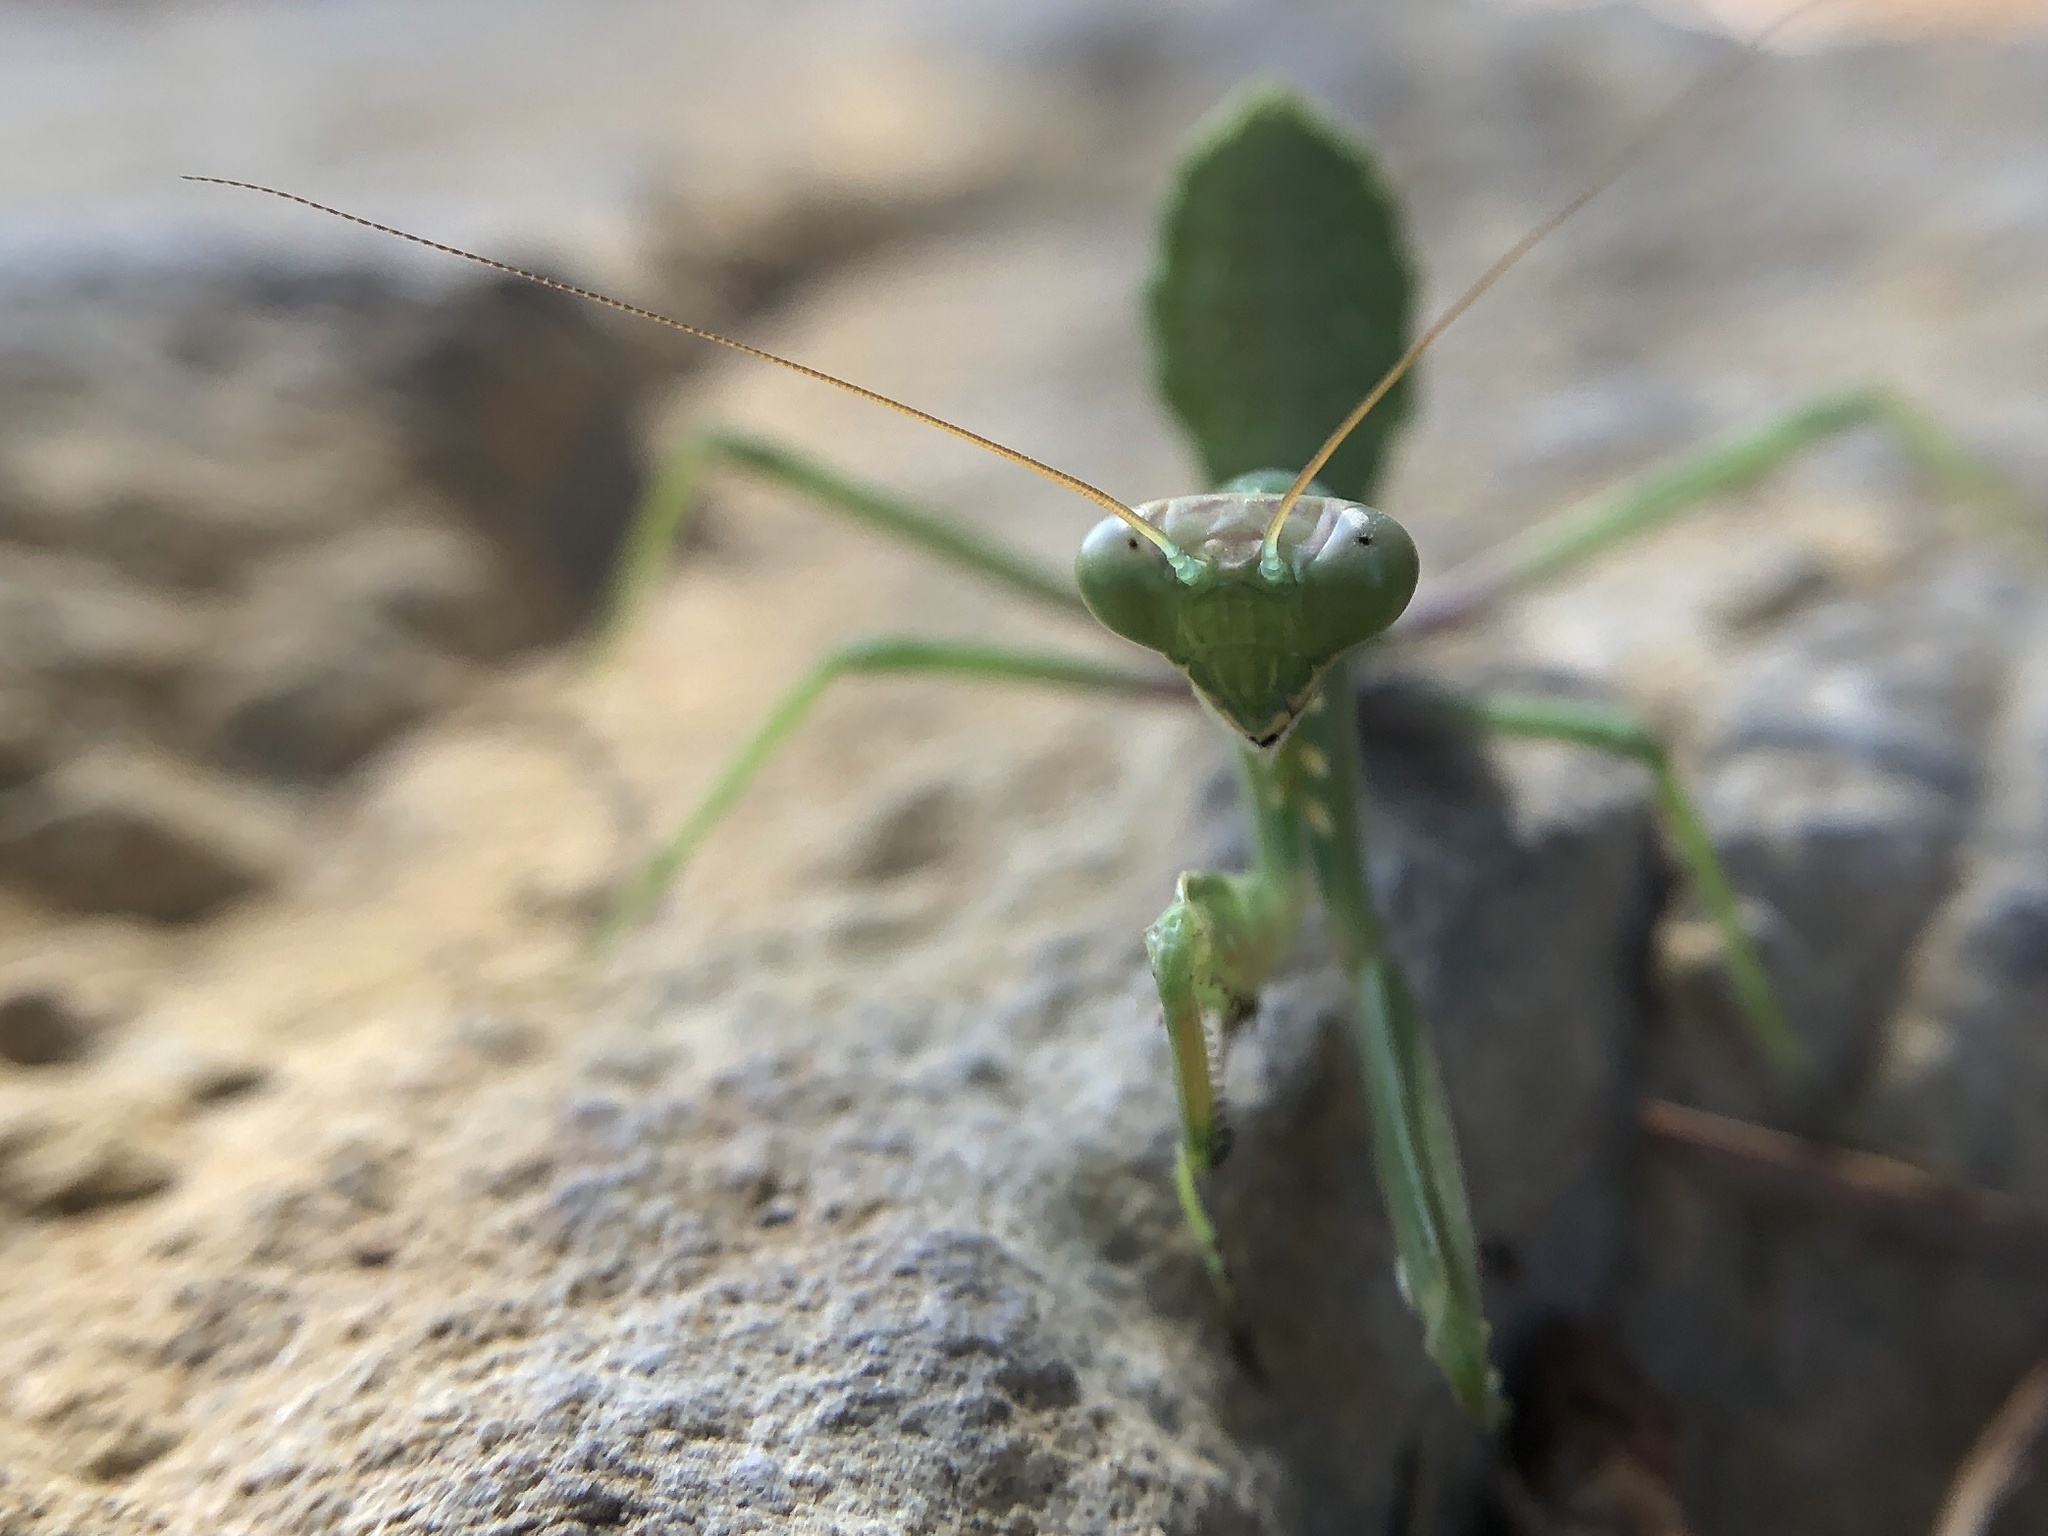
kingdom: Animalia
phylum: Arthropoda
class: Insecta
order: Mantodea
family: Mantidae
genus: Sphodromantis
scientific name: Sphodromantis viridis
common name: Giant african mantis
